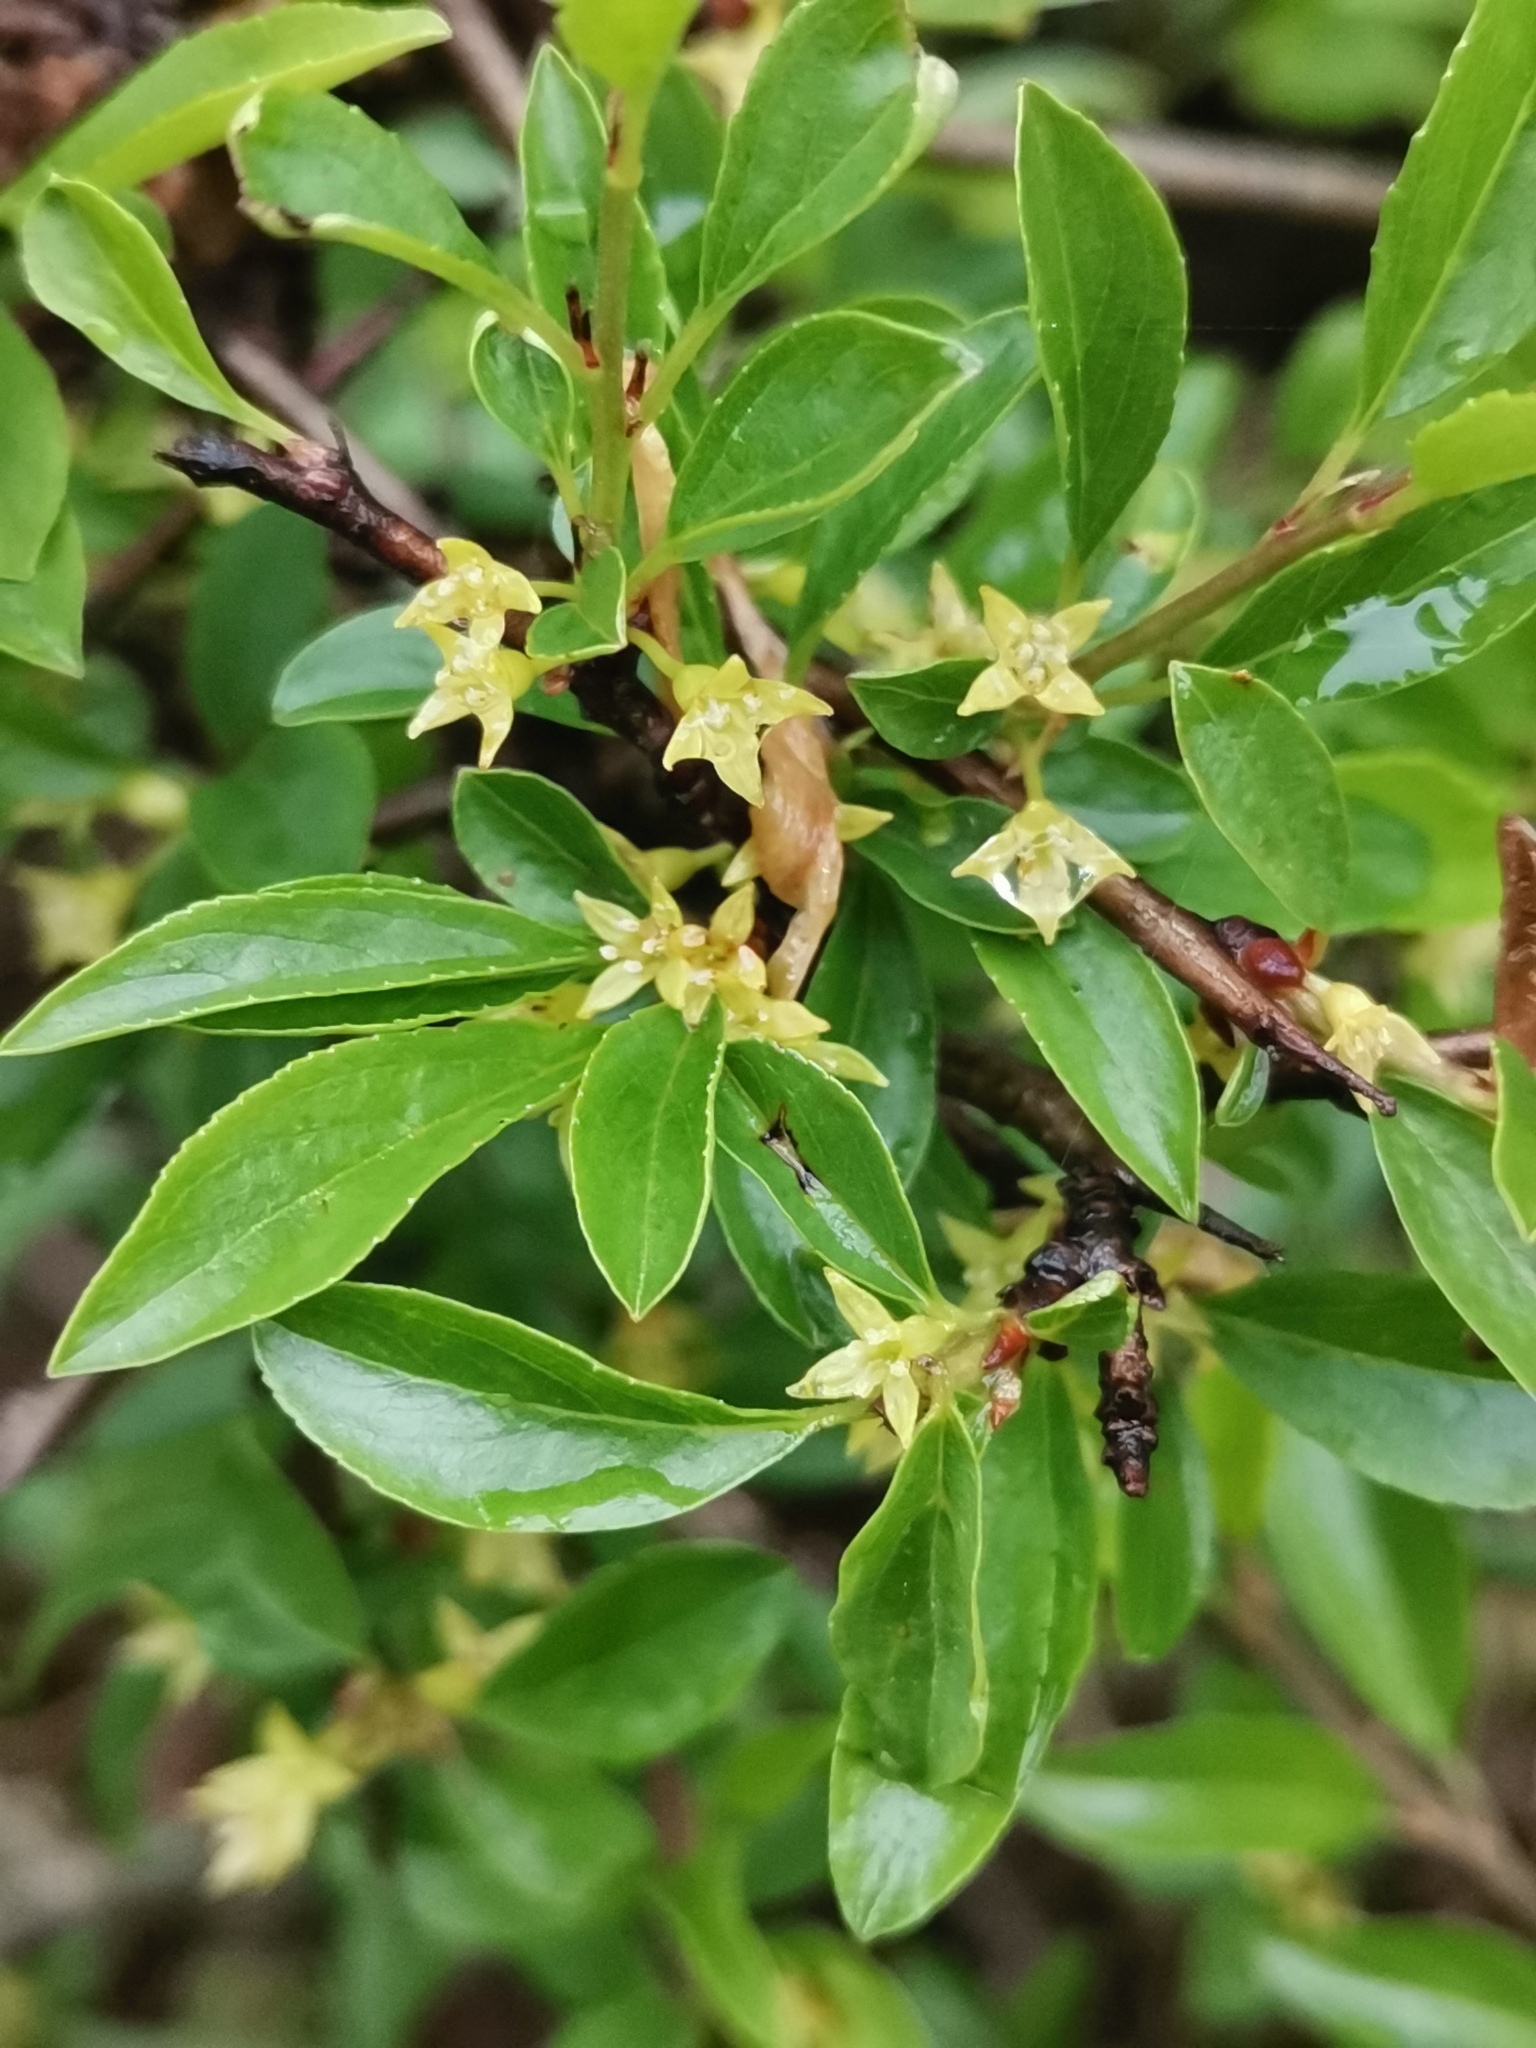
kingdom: Plantae
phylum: Tracheophyta
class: Magnoliopsida
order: Rosales
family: Rhamnaceae
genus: Rhamnus
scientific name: Rhamnus saxatilis
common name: Rock buckthorn
